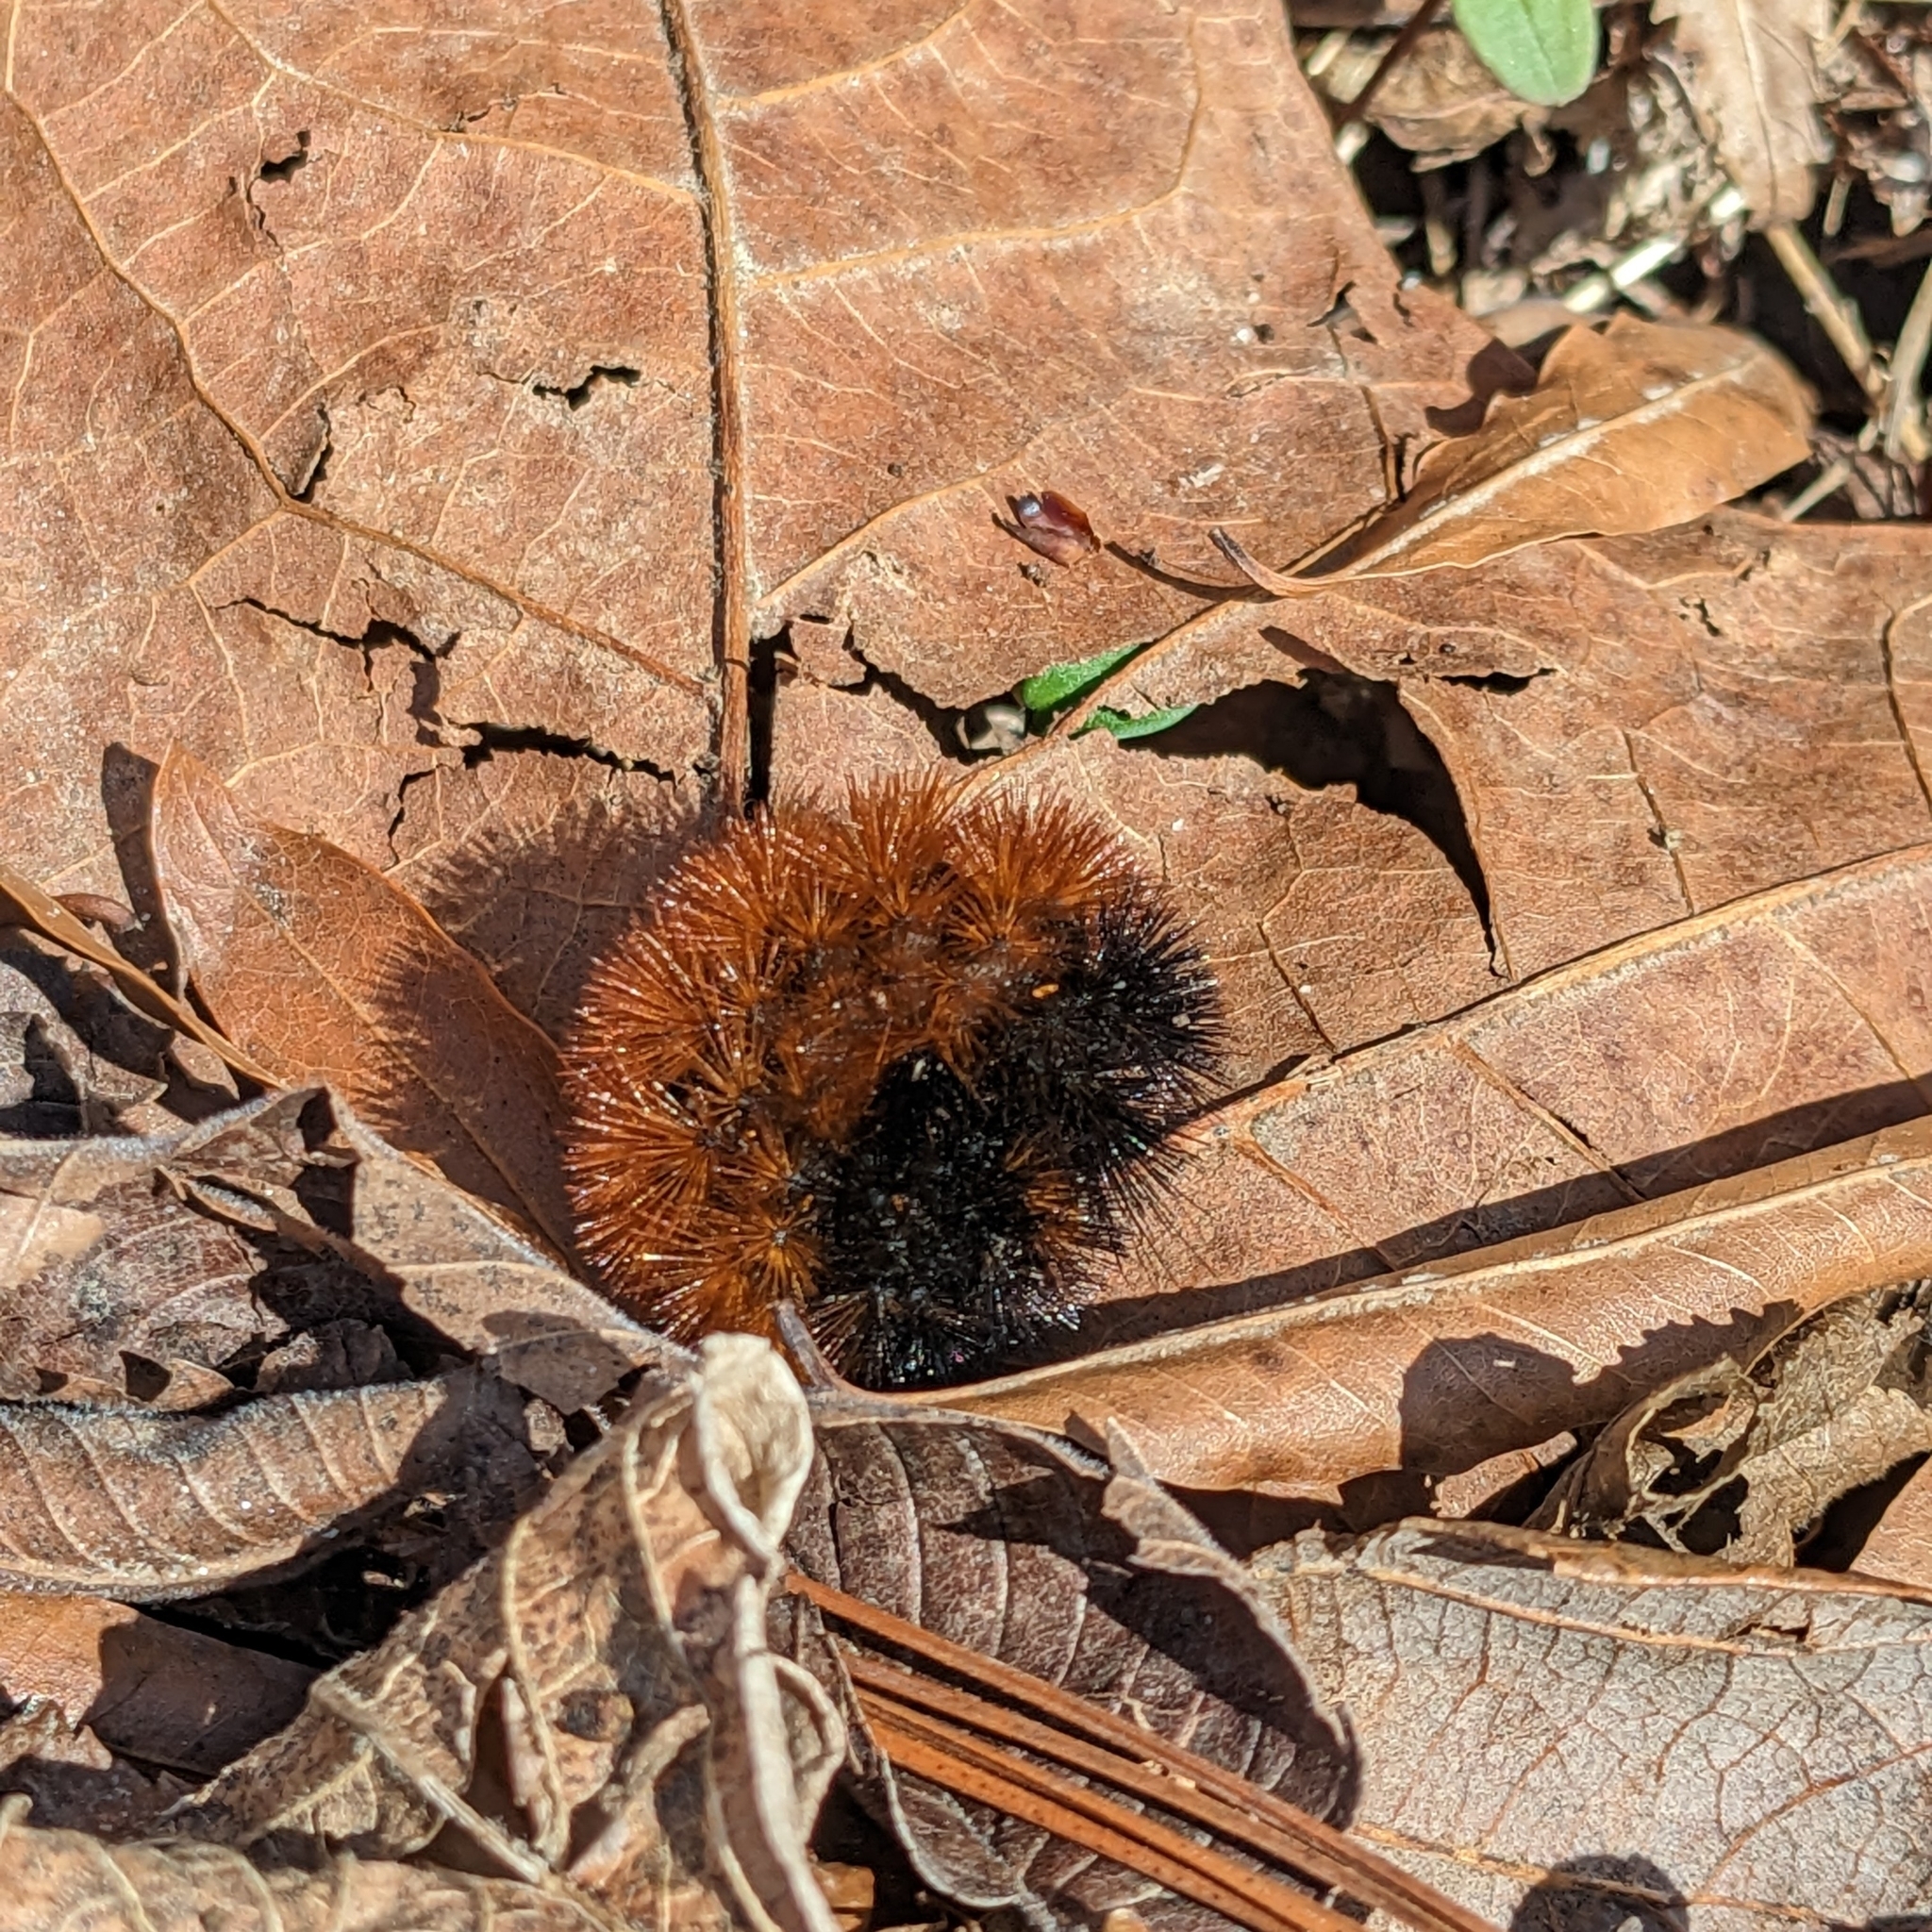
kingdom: Animalia
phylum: Arthropoda
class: Insecta
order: Lepidoptera
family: Erebidae
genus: Pyrrharctia
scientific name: Pyrrharctia isabella
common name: Isabella tiger moth
